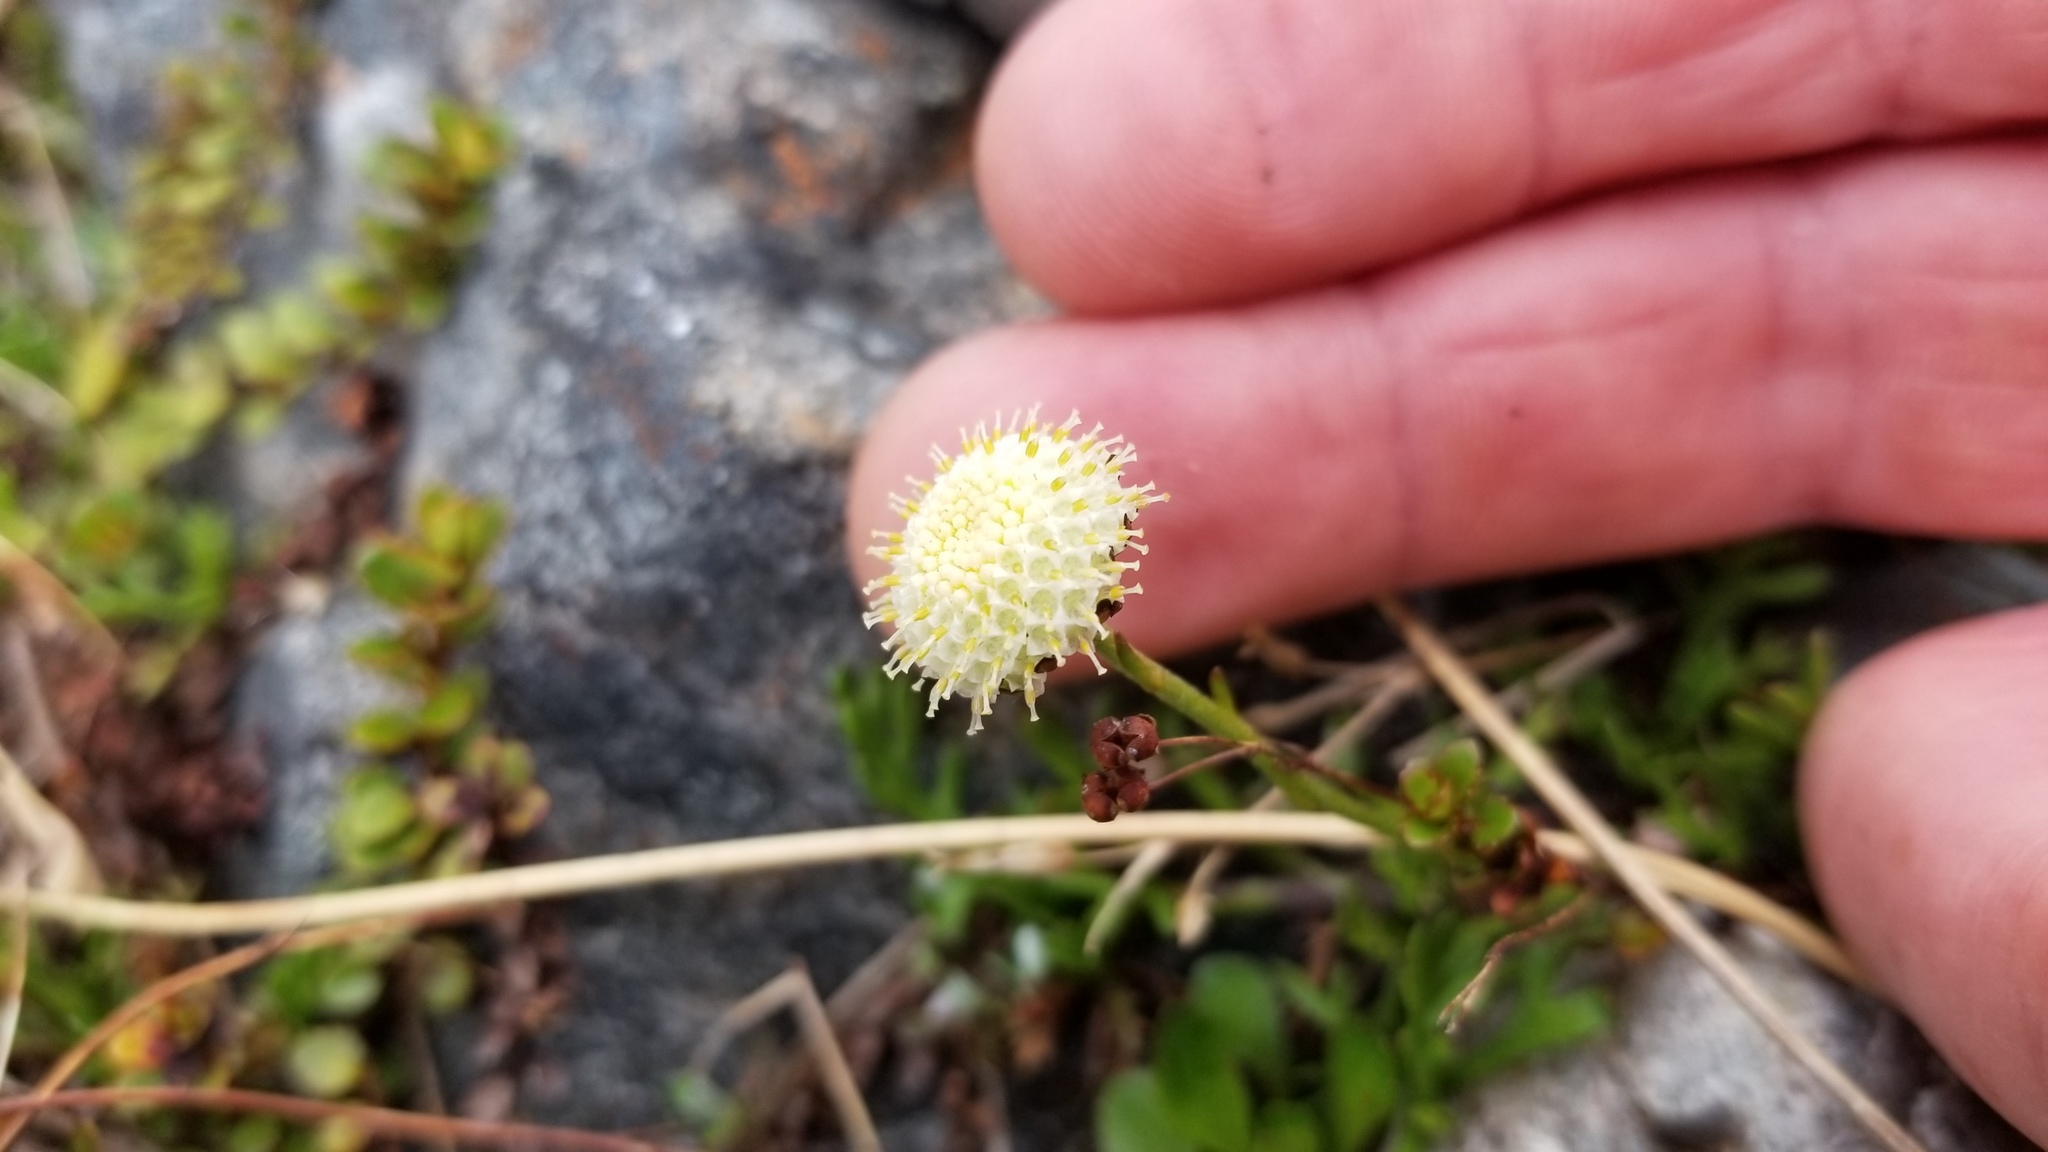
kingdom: Plantae
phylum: Tracheophyta
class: Magnoliopsida
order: Asterales
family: Asteraceae
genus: Leptinella
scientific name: Leptinella pyrethrifolia
